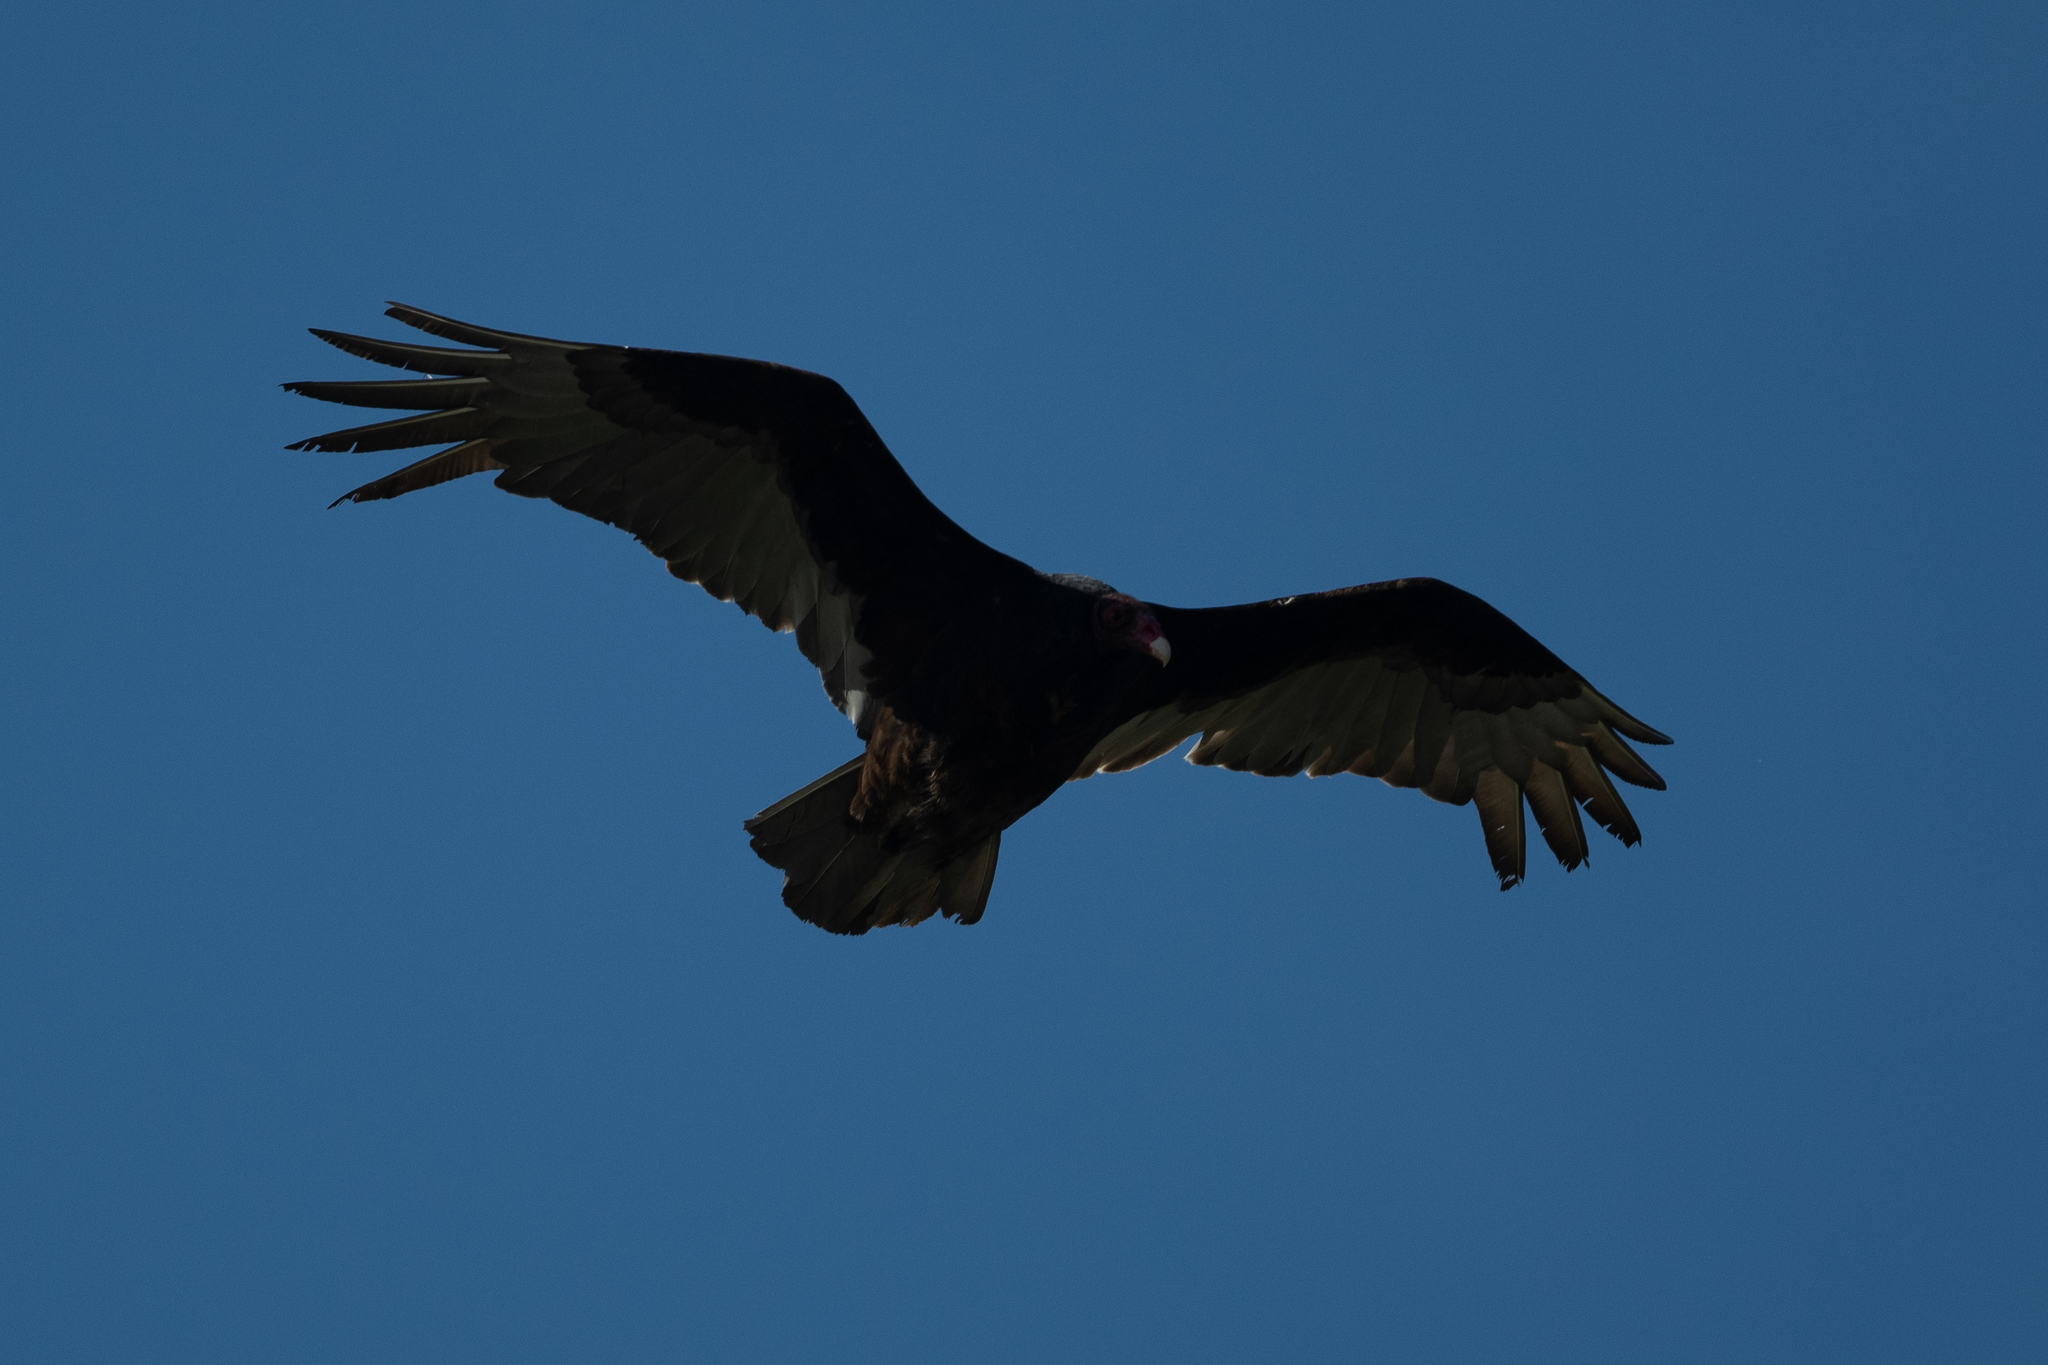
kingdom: Animalia
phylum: Chordata
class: Aves
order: Accipitriformes
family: Cathartidae
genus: Cathartes
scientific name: Cathartes aura
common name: Turkey vulture
